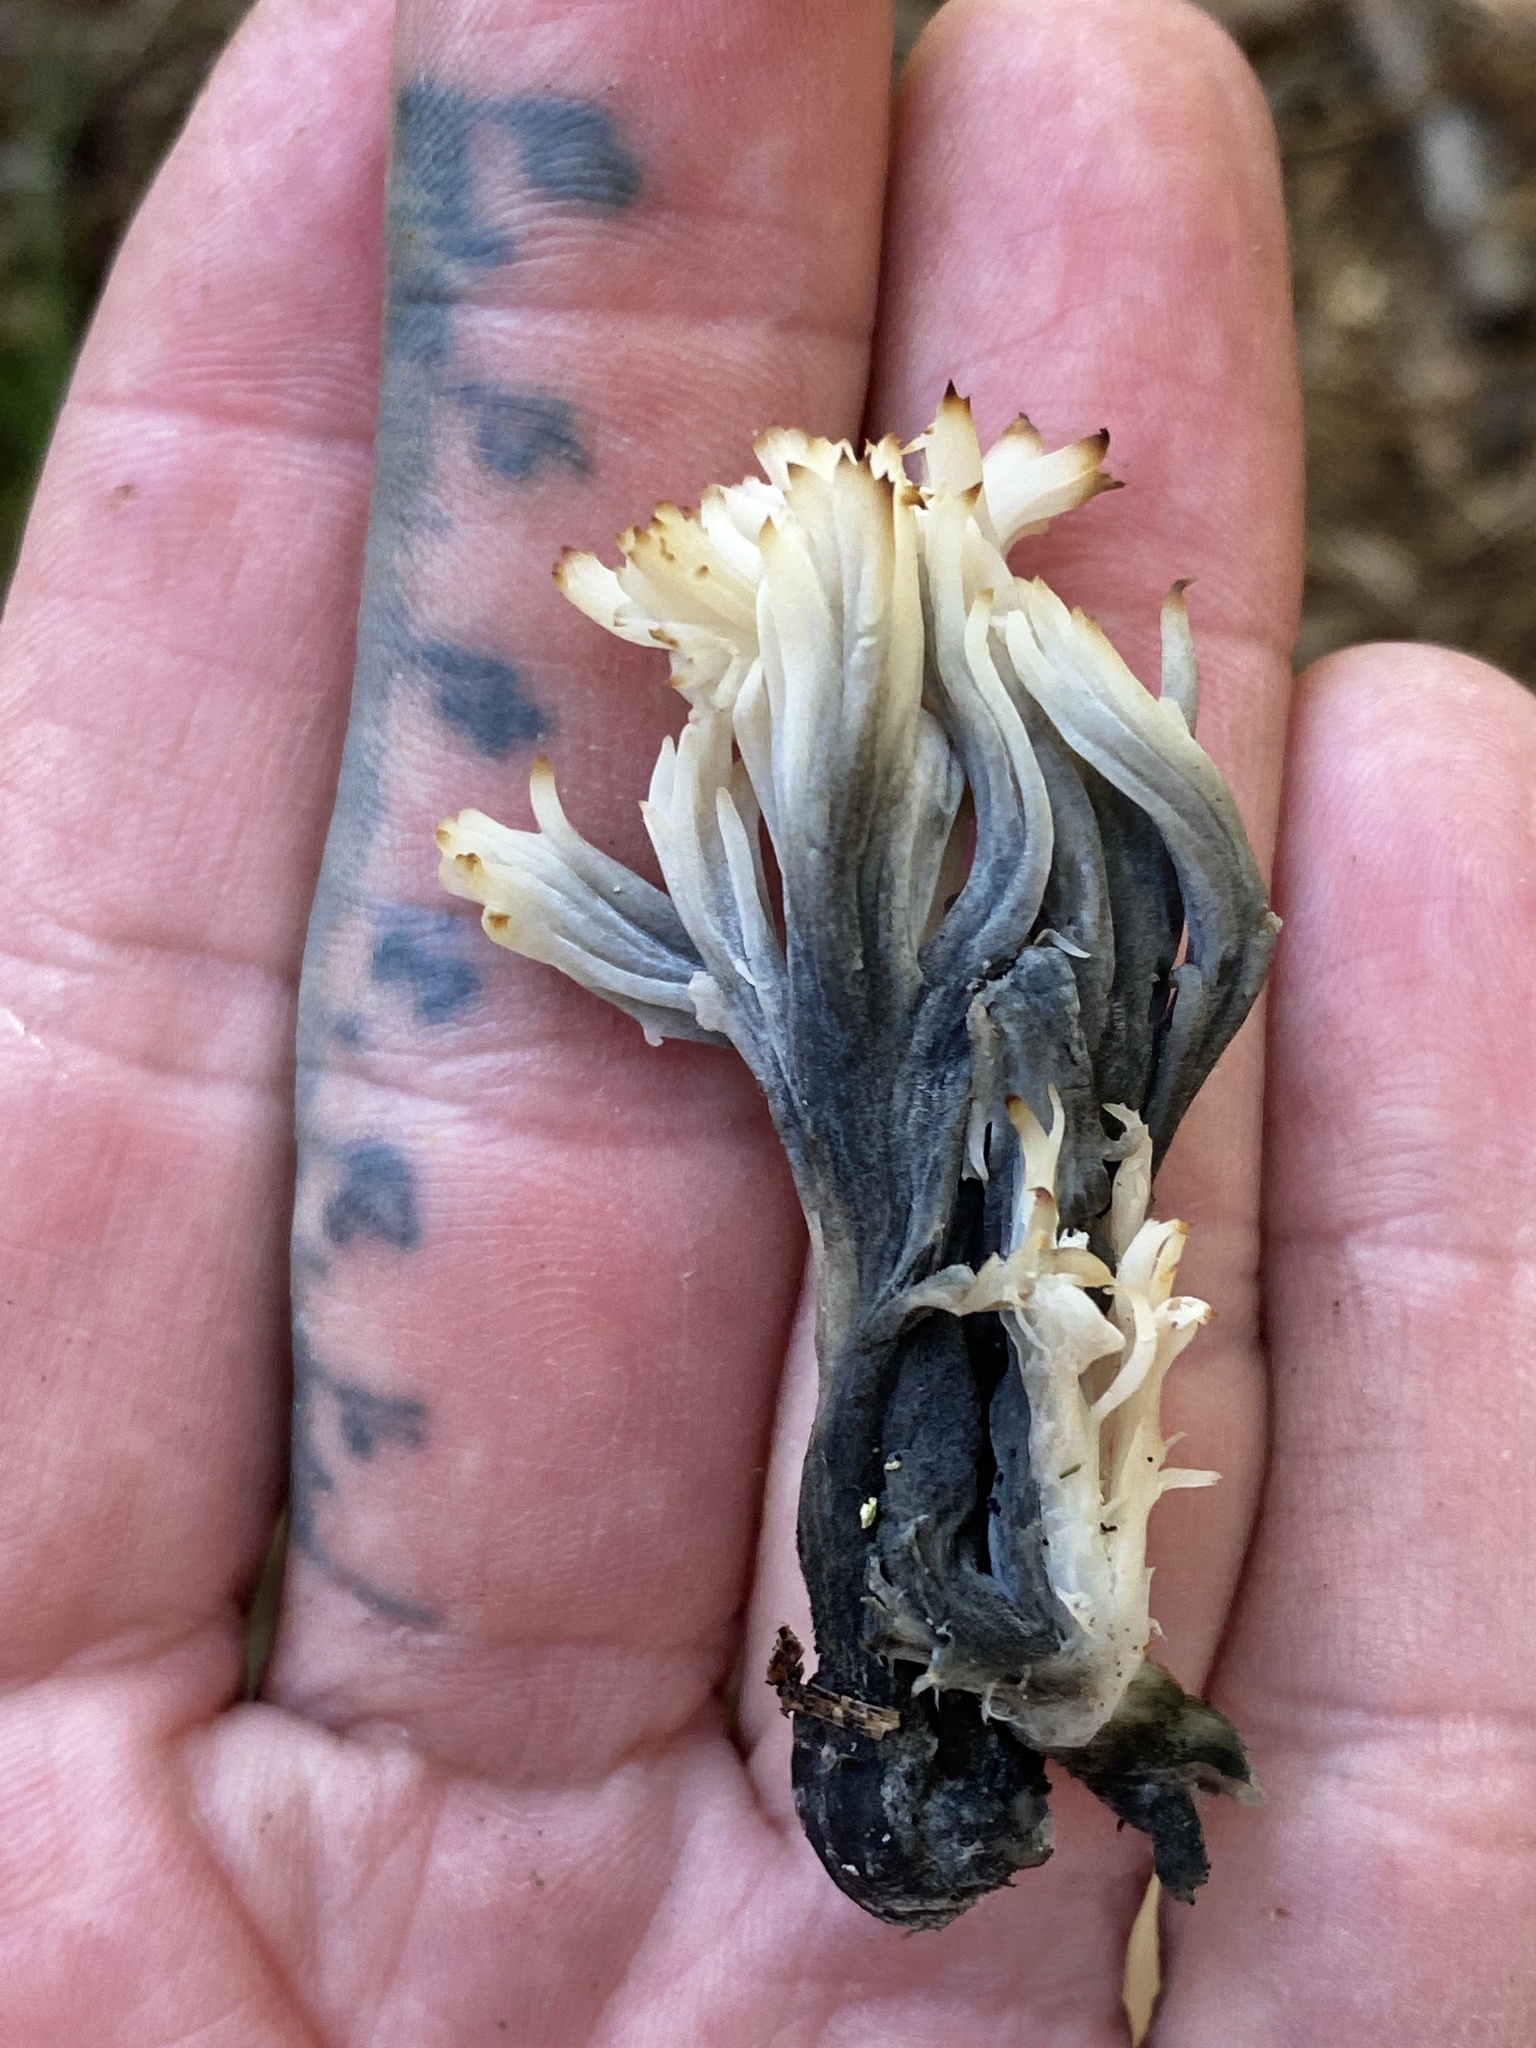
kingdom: Fungi
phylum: Ascomycota
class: Sordariomycetes
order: Sordariales
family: Helminthosphaeriaceae
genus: Helminthosphaeria
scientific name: Helminthosphaeria clavariarum
